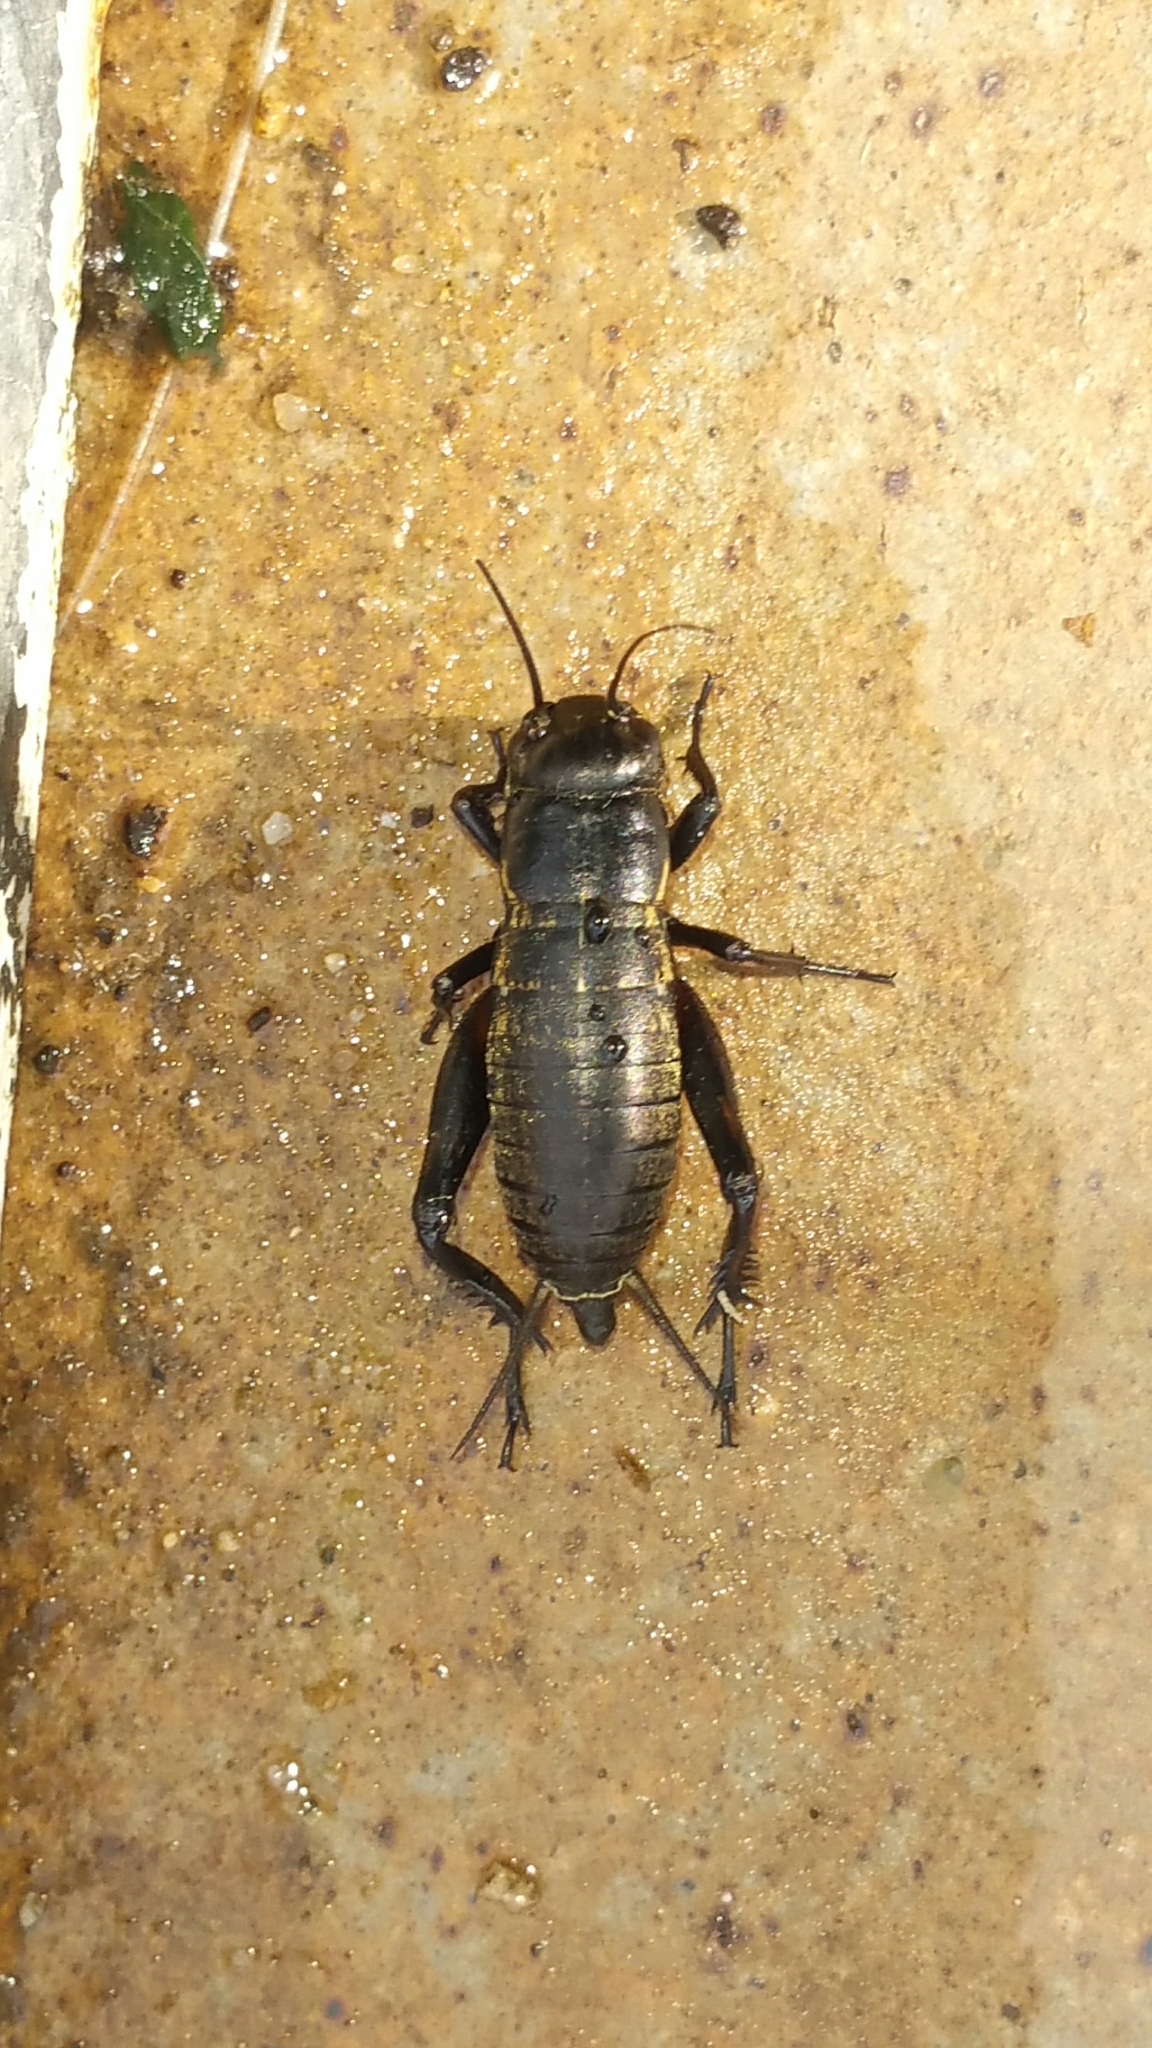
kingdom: Animalia
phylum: Arthropoda
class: Insecta
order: Orthoptera
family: Gryllidae
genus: Gryllus
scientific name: Gryllus bimaculatus
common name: Two-spotted cricket
